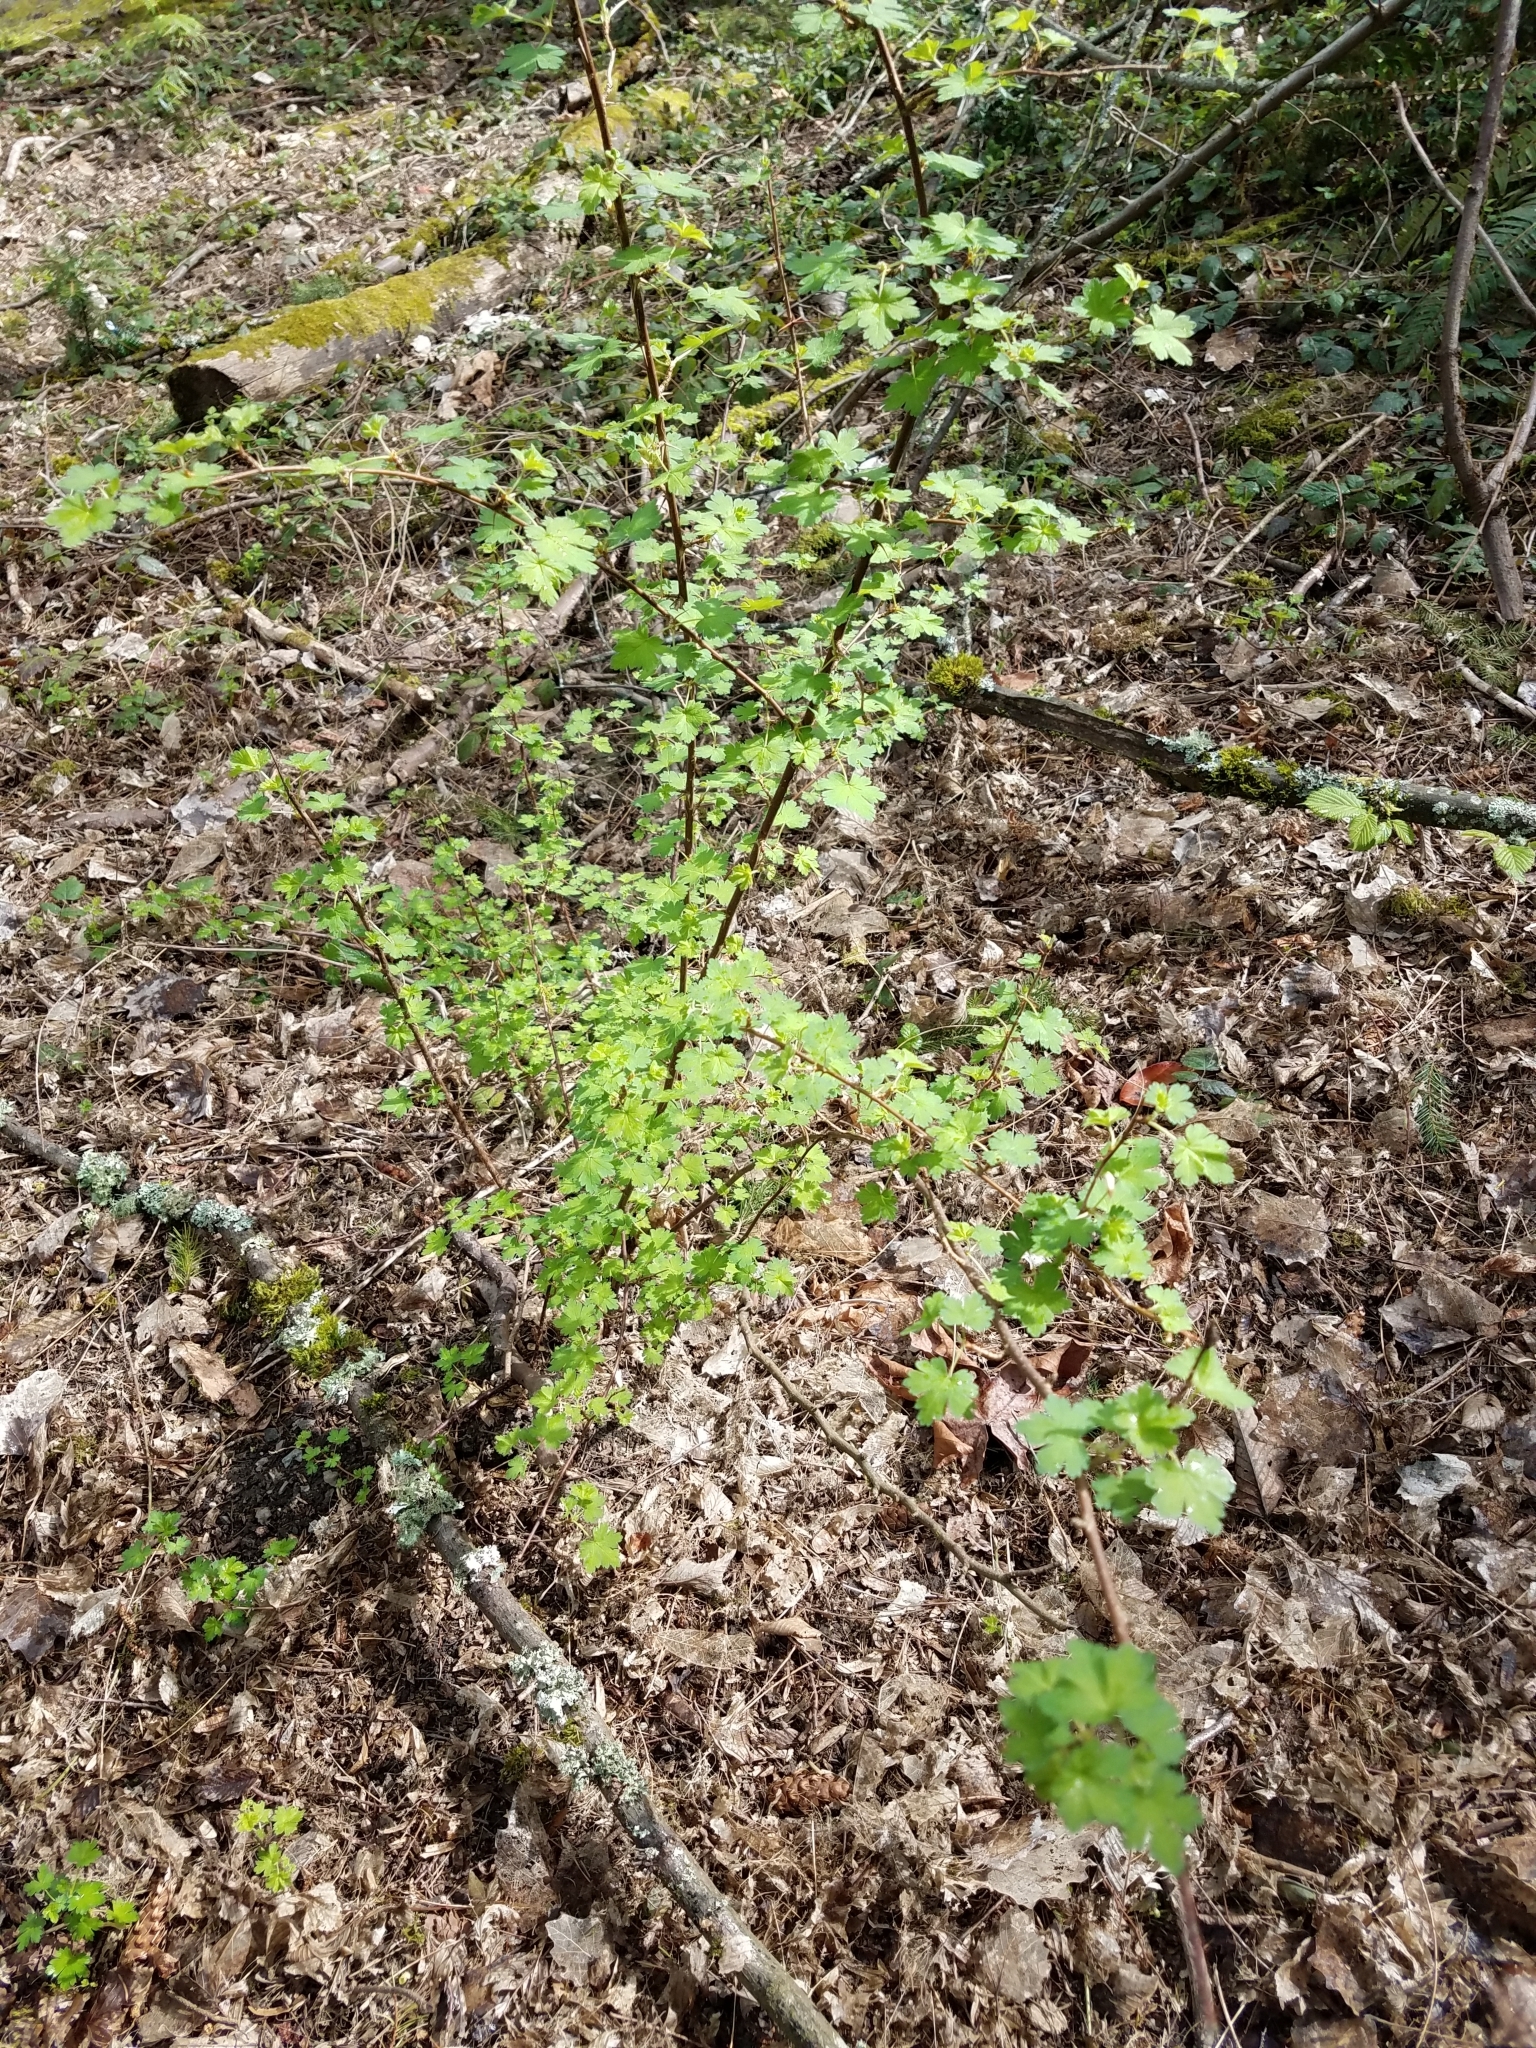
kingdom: Plantae
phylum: Tracheophyta
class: Magnoliopsida
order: Saxifragales
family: Grossulariaceae
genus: Ribes
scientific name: Ribes divaricatum
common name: Wild black gooseberry
